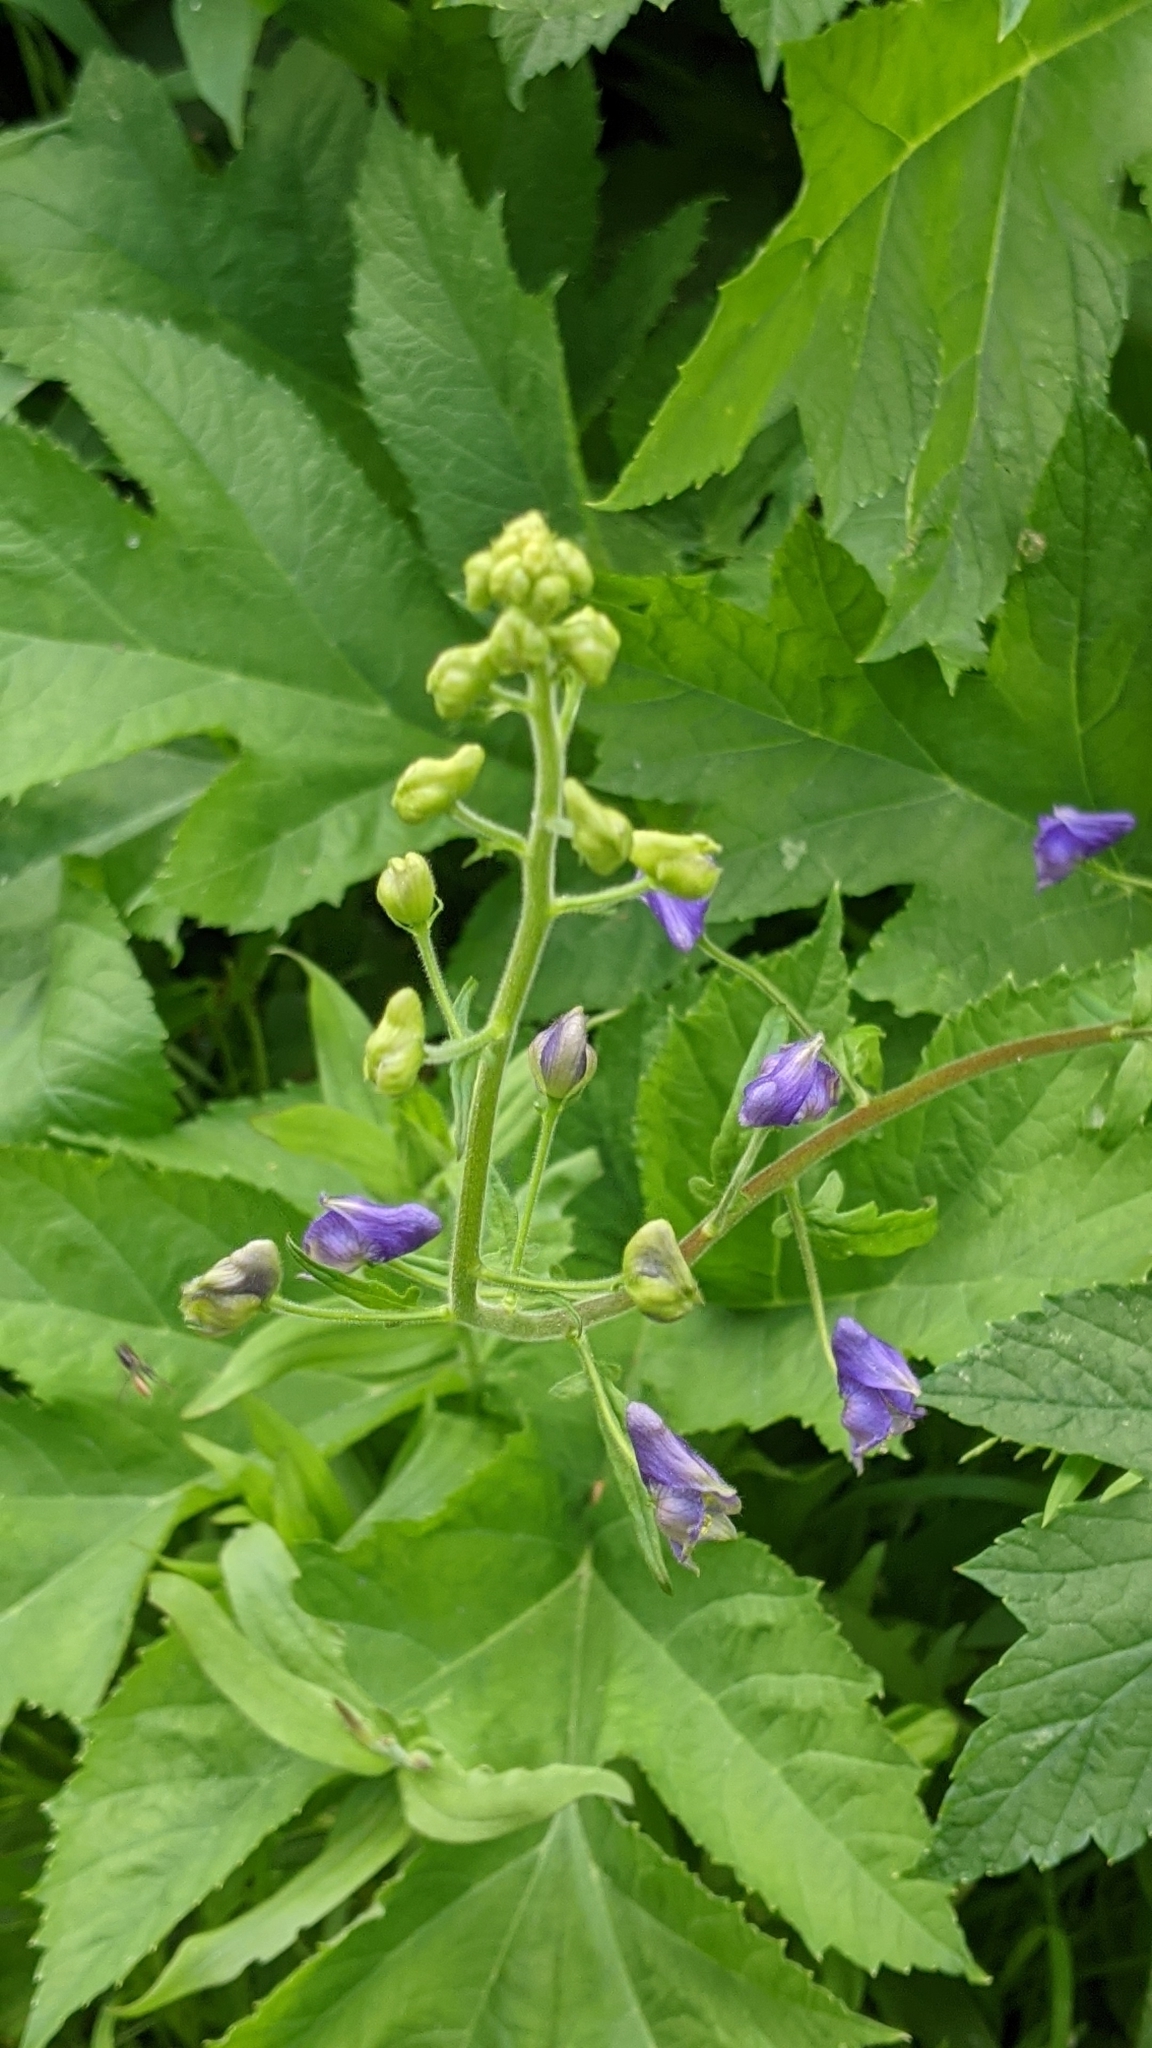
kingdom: Plantae
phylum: Tracheophyta
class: Magnoliopsida
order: Ranunculales
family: Ranunculaceae
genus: Aconitum
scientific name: Aconitum columbianum
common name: Columbia aconite
